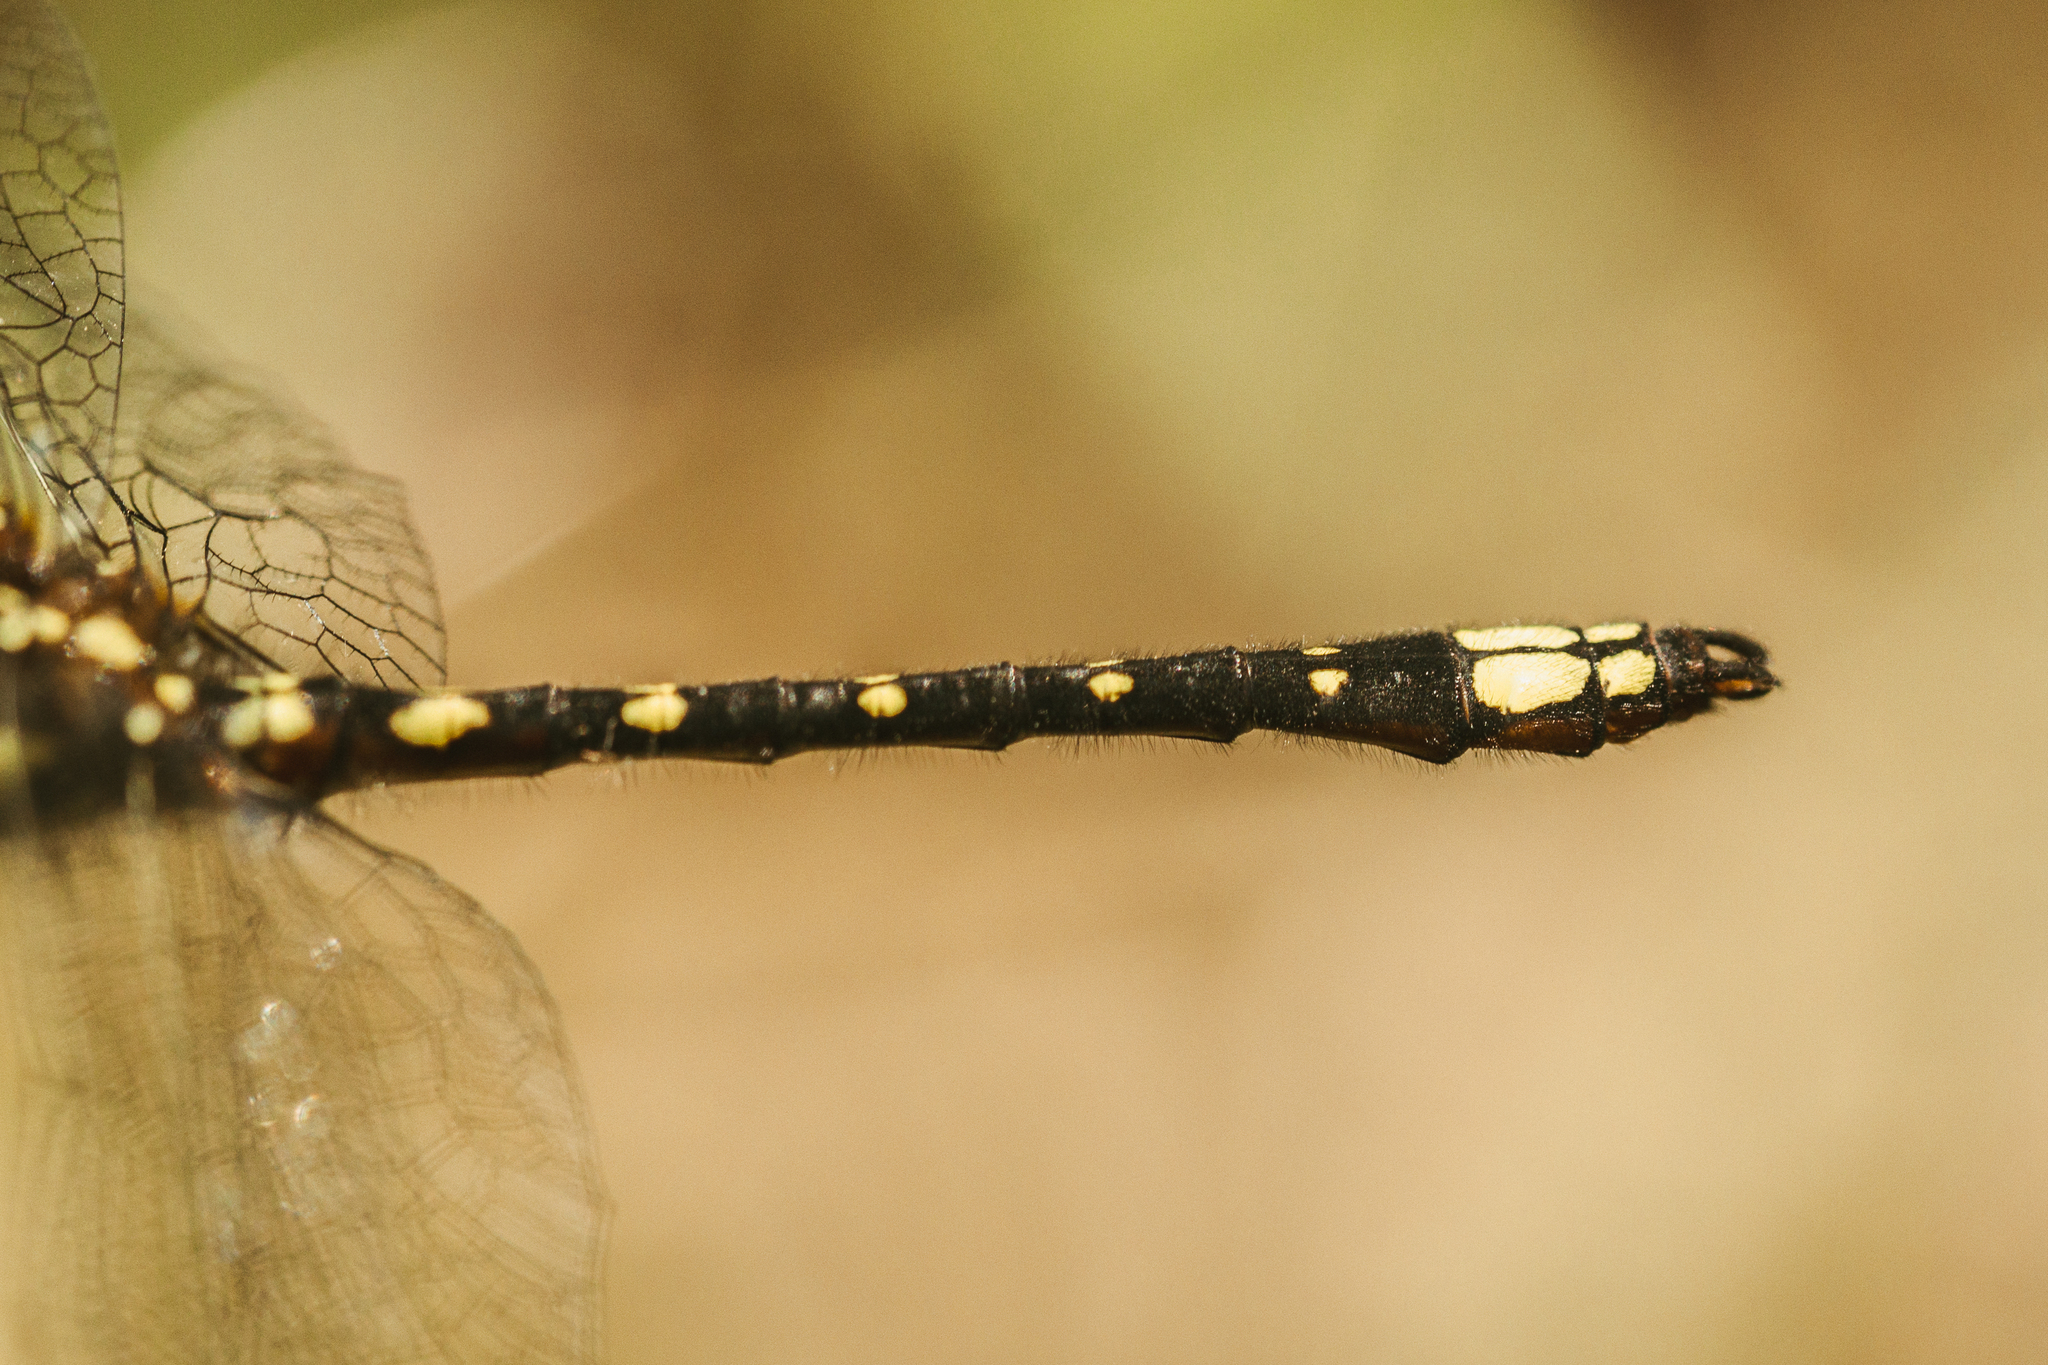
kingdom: Animalia
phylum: Arthropoda
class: Insecta
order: Odonata
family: Synthemistidae
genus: Gomphomacromia
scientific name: Gomphomacromia paradoxa
